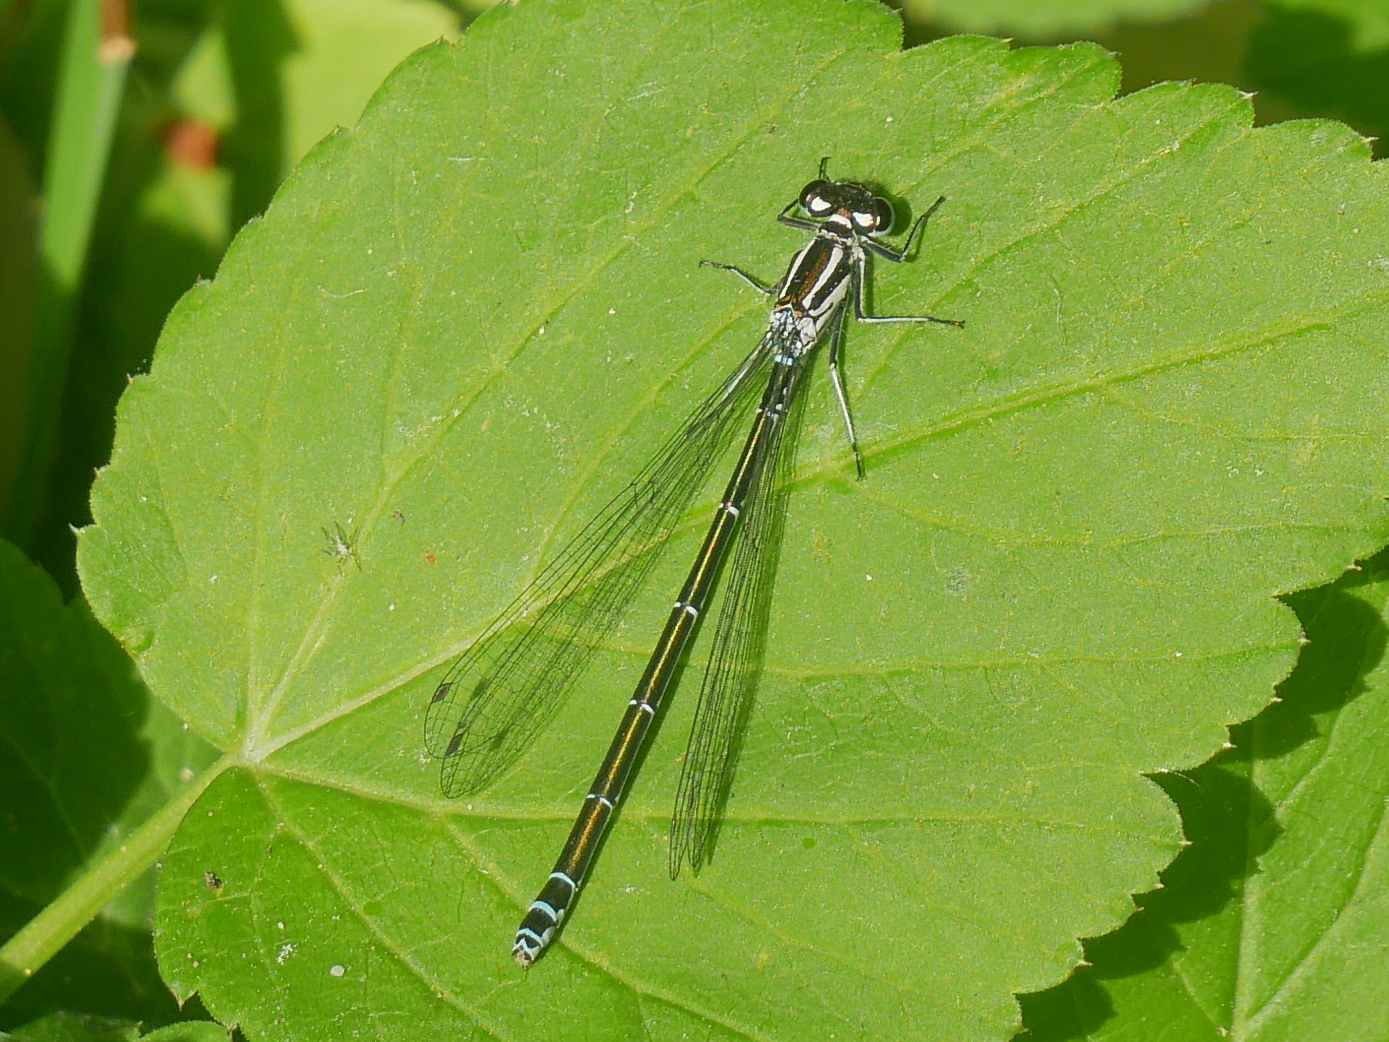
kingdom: Animalia
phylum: Arthropoda
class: Insecta
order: Odonata
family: Coenagrionidae
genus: Coenagrion
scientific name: Coenagrion puella
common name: Azure damselfly
